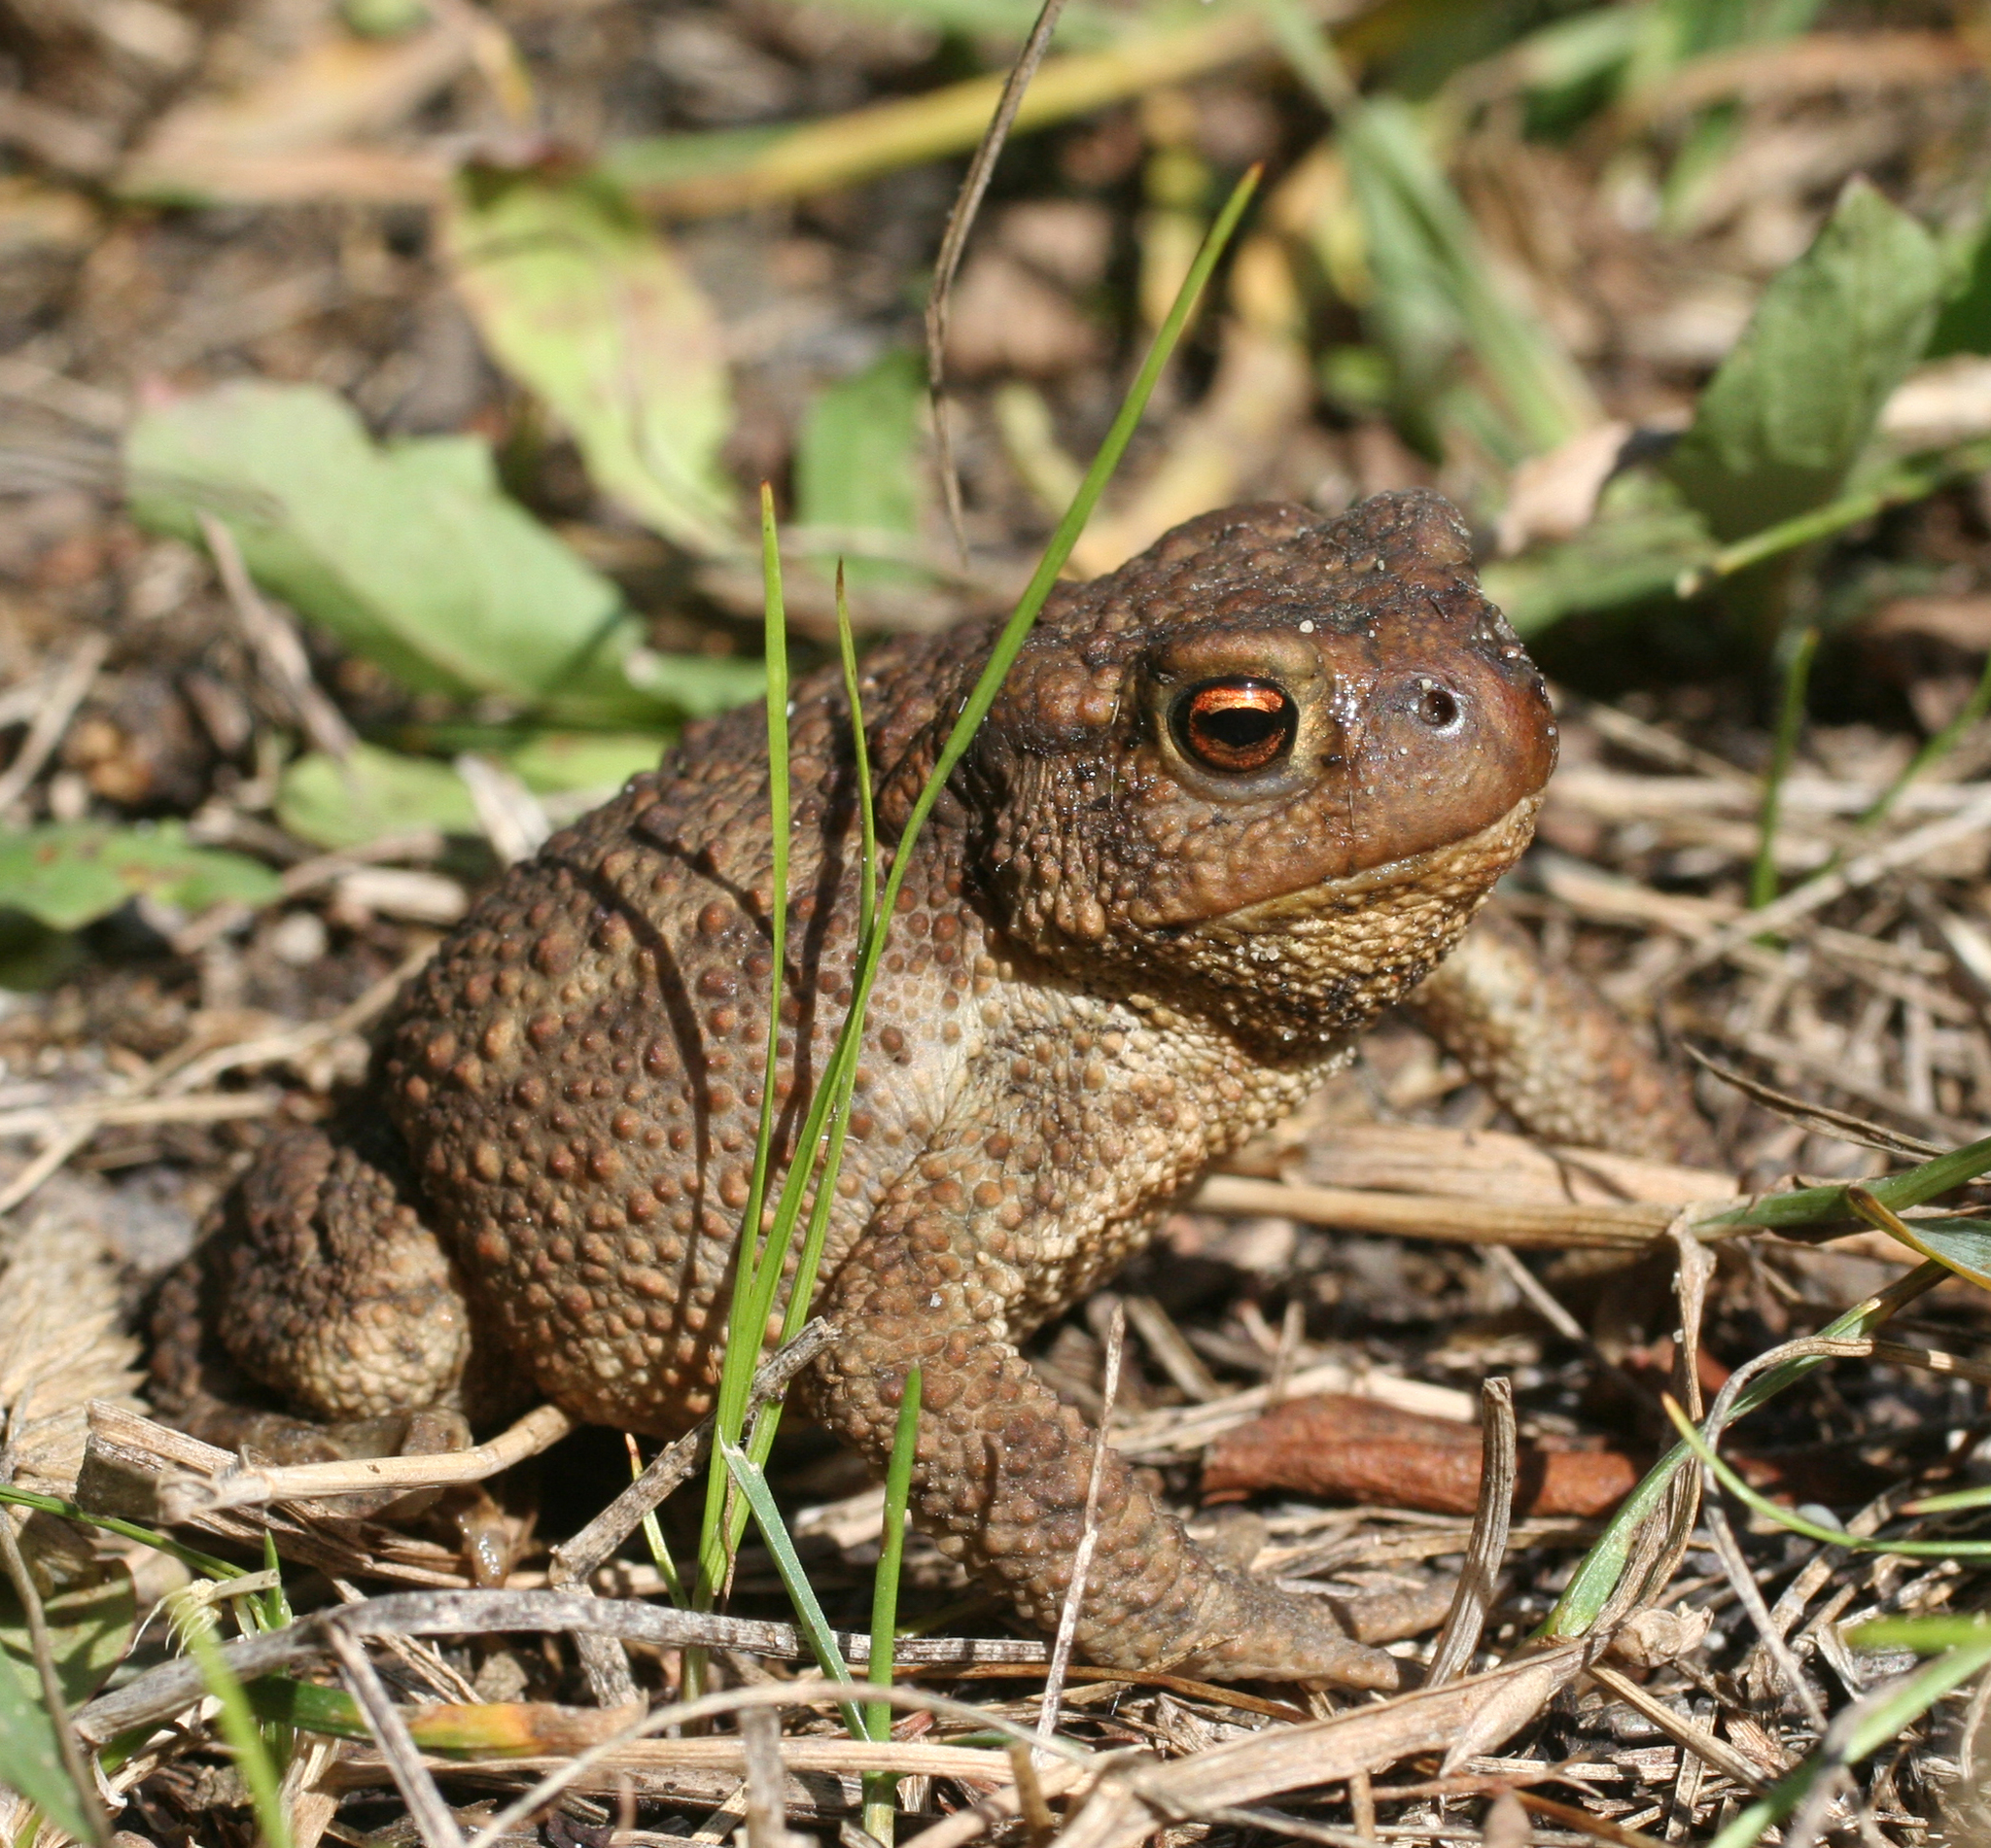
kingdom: Animalia
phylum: Chordata
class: Amphibia
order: Anura
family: Bufonidae
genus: Bufo
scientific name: Bufo bufo
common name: Common toad
